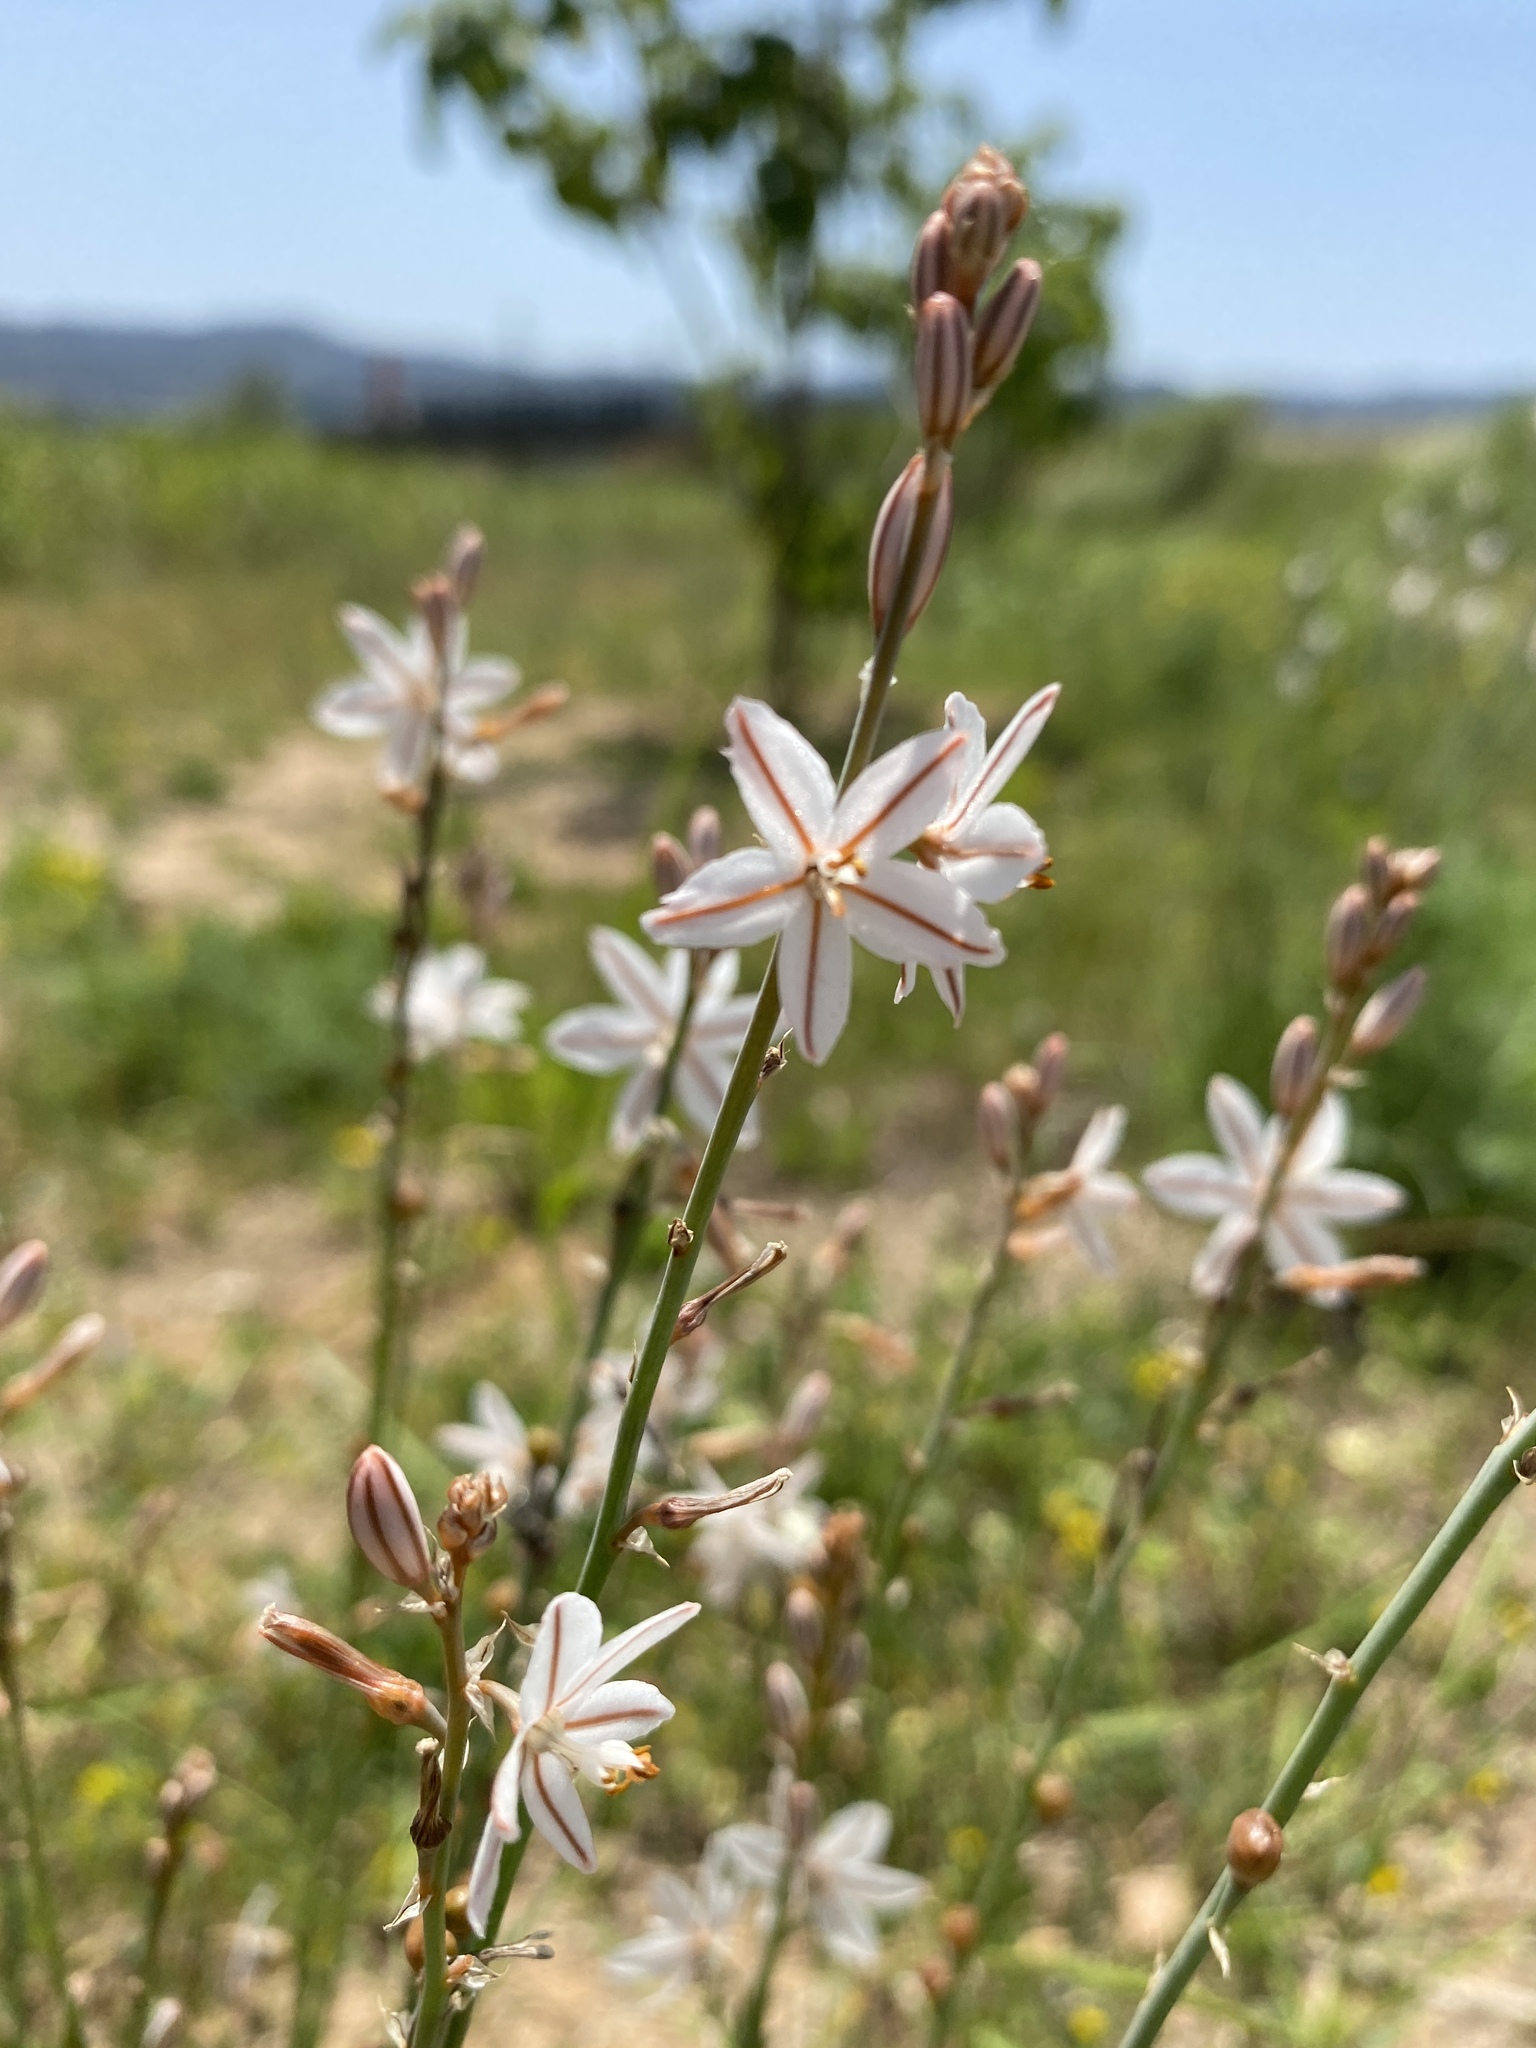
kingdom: Plantae
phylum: Tracheophyta
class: Liliopsida
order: Asparagales
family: Asphodelaceae
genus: Asphodelus
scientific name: Asphodelus fistulosus
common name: Onionweed
